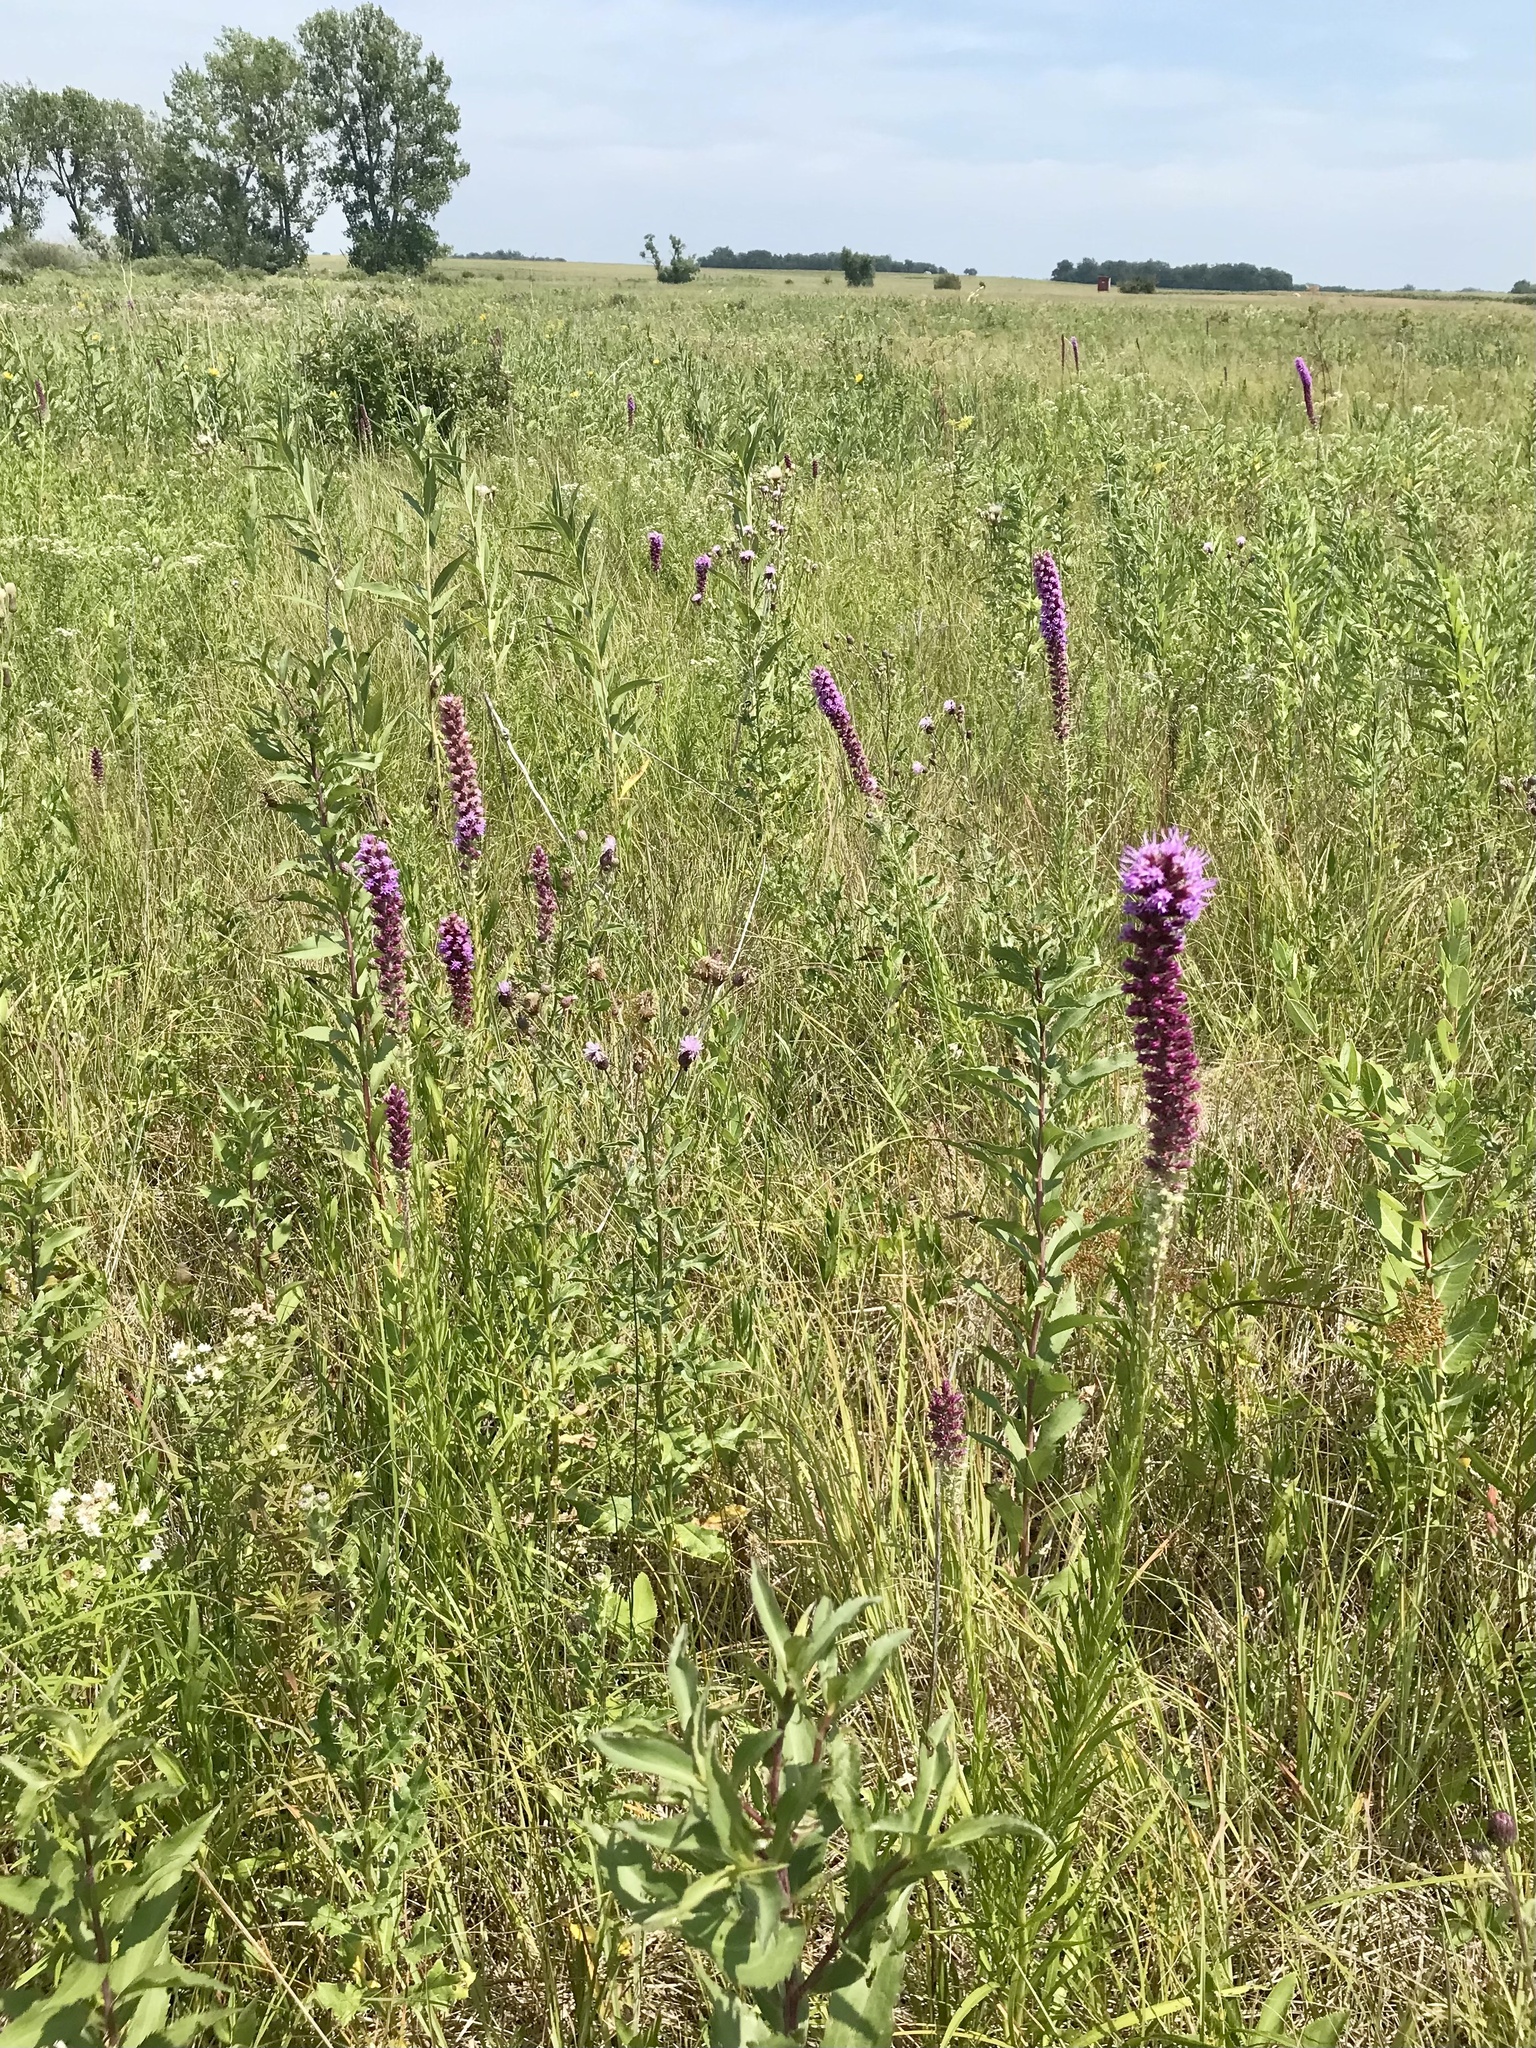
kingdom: Plantae
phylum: Tracheophyta
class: Magnoliopsida
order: Asterales
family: Asteraceae
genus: Liatris
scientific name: Liatris pycnostachya
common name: Cattail gayfeather
